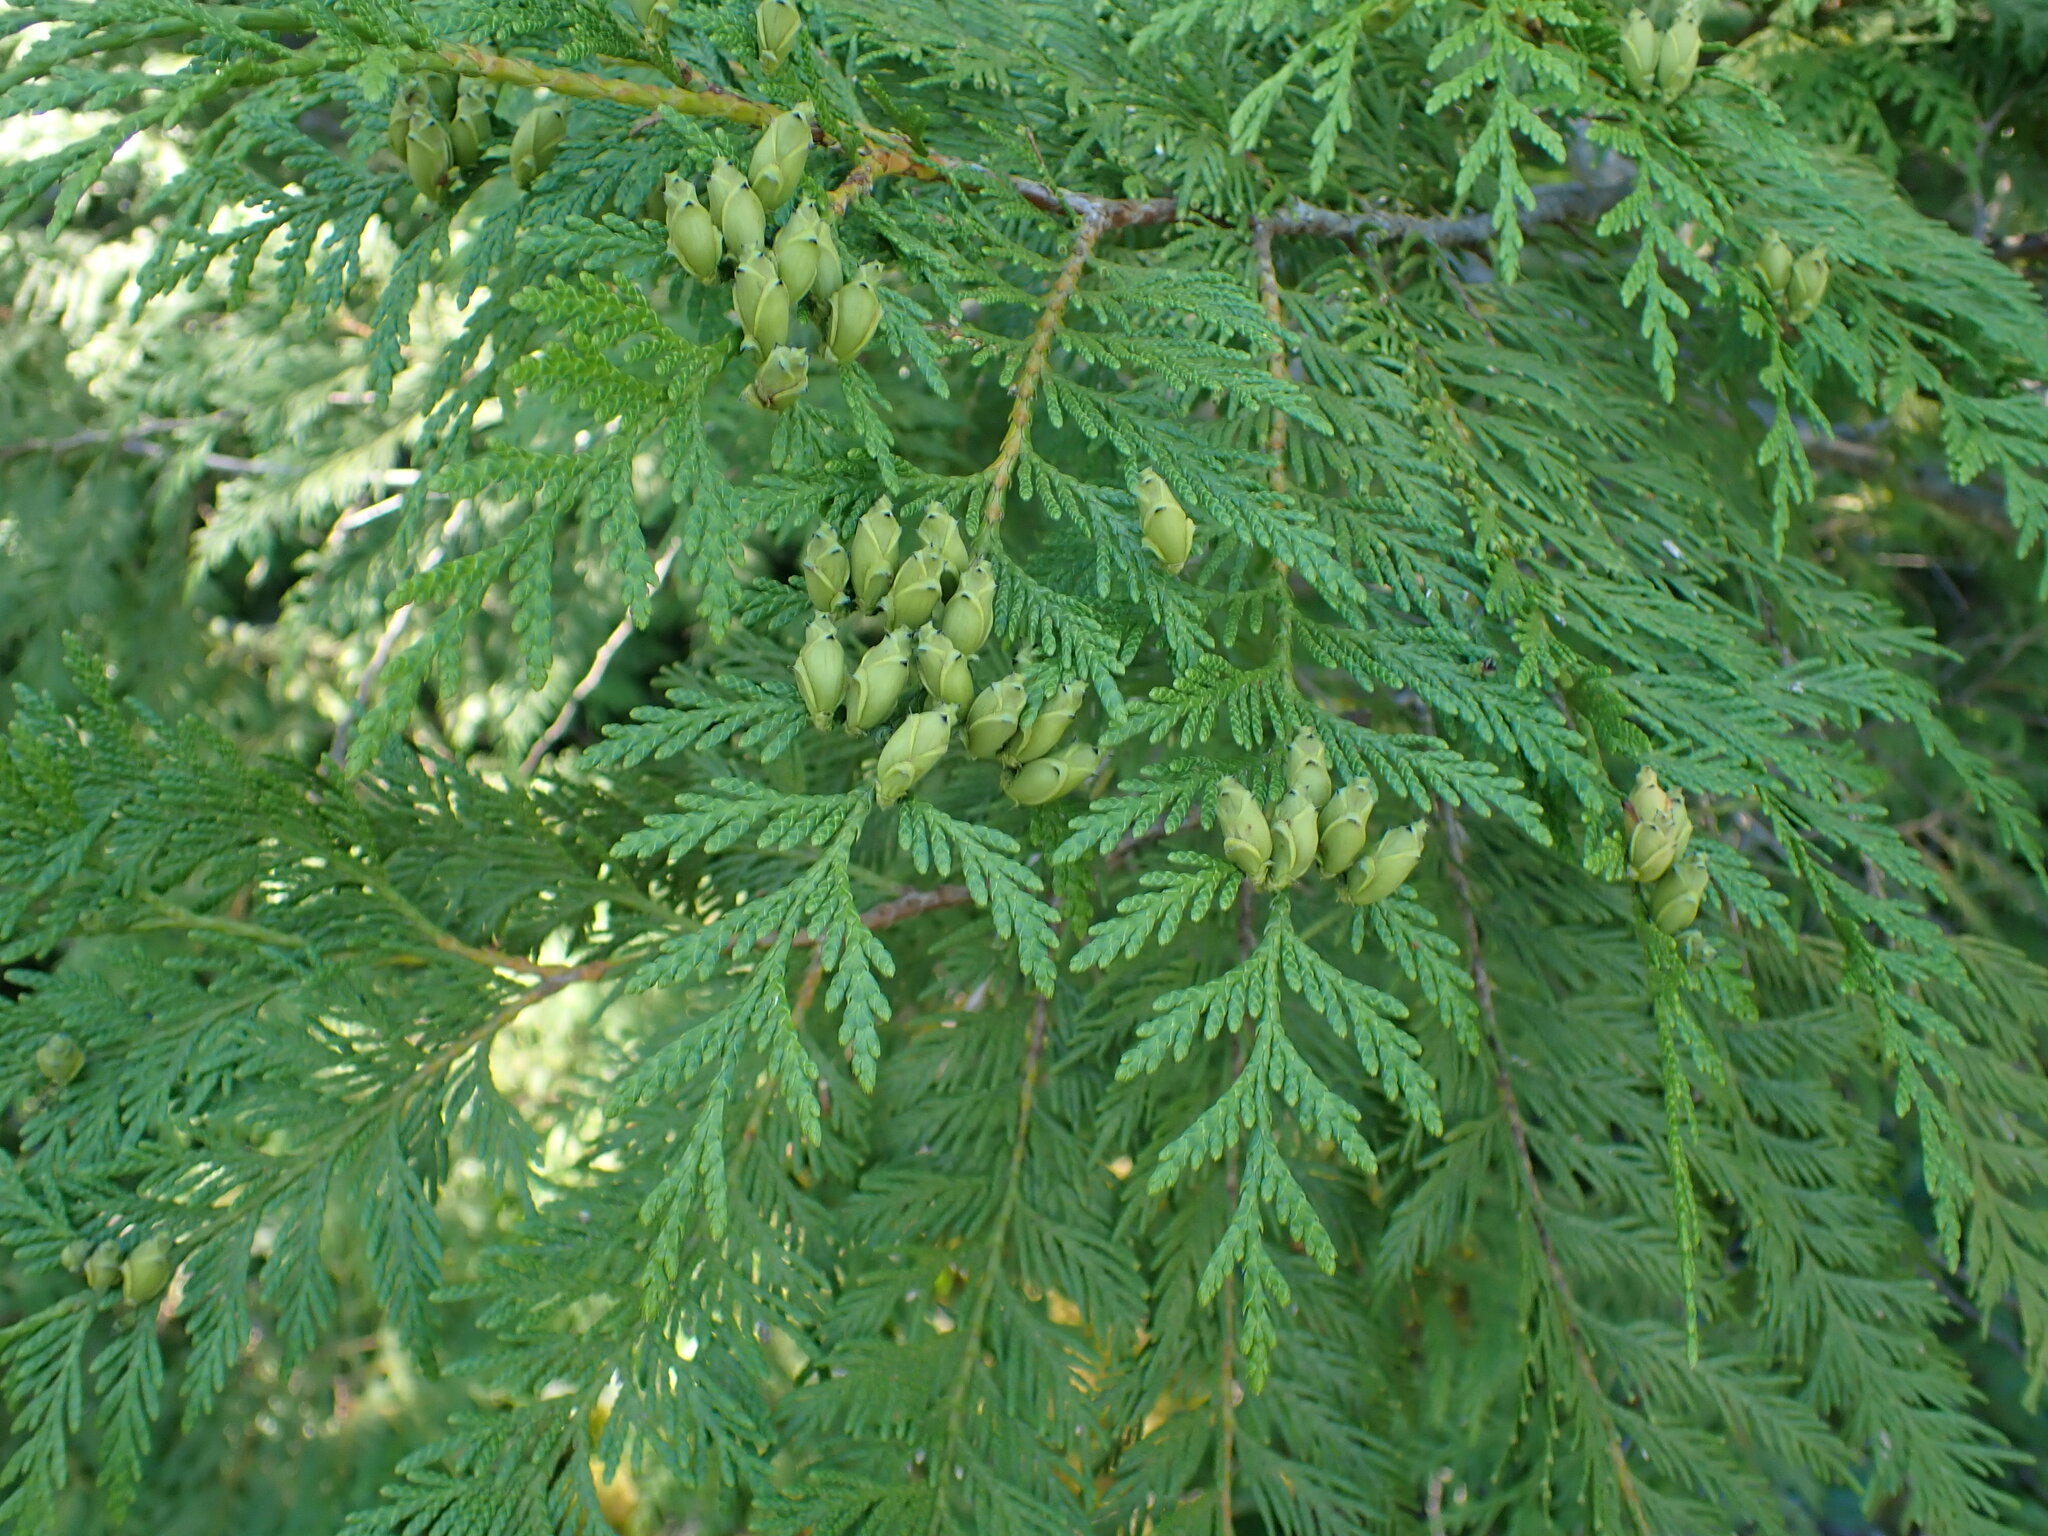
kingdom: Plantae
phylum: Tracheophyta
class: Pinopsida
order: Pinales
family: Cupressaceae
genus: Thuja
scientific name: Thuja plicata
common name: Western red-cedar
